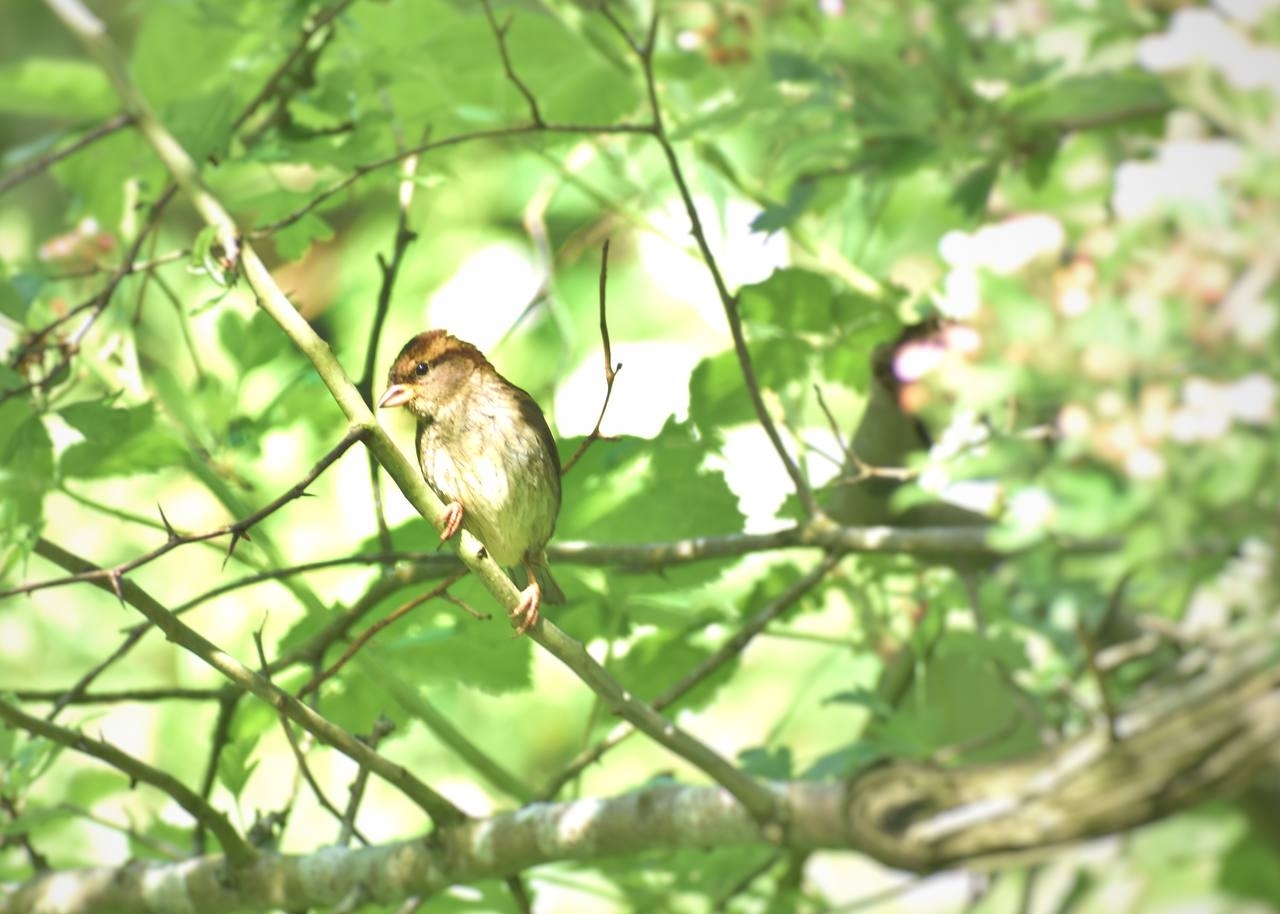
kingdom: Animalia
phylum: Chordata
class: Aves
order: Passeriformes
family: Passeridae
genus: Passer
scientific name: Passer domesticus
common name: House sparrow
